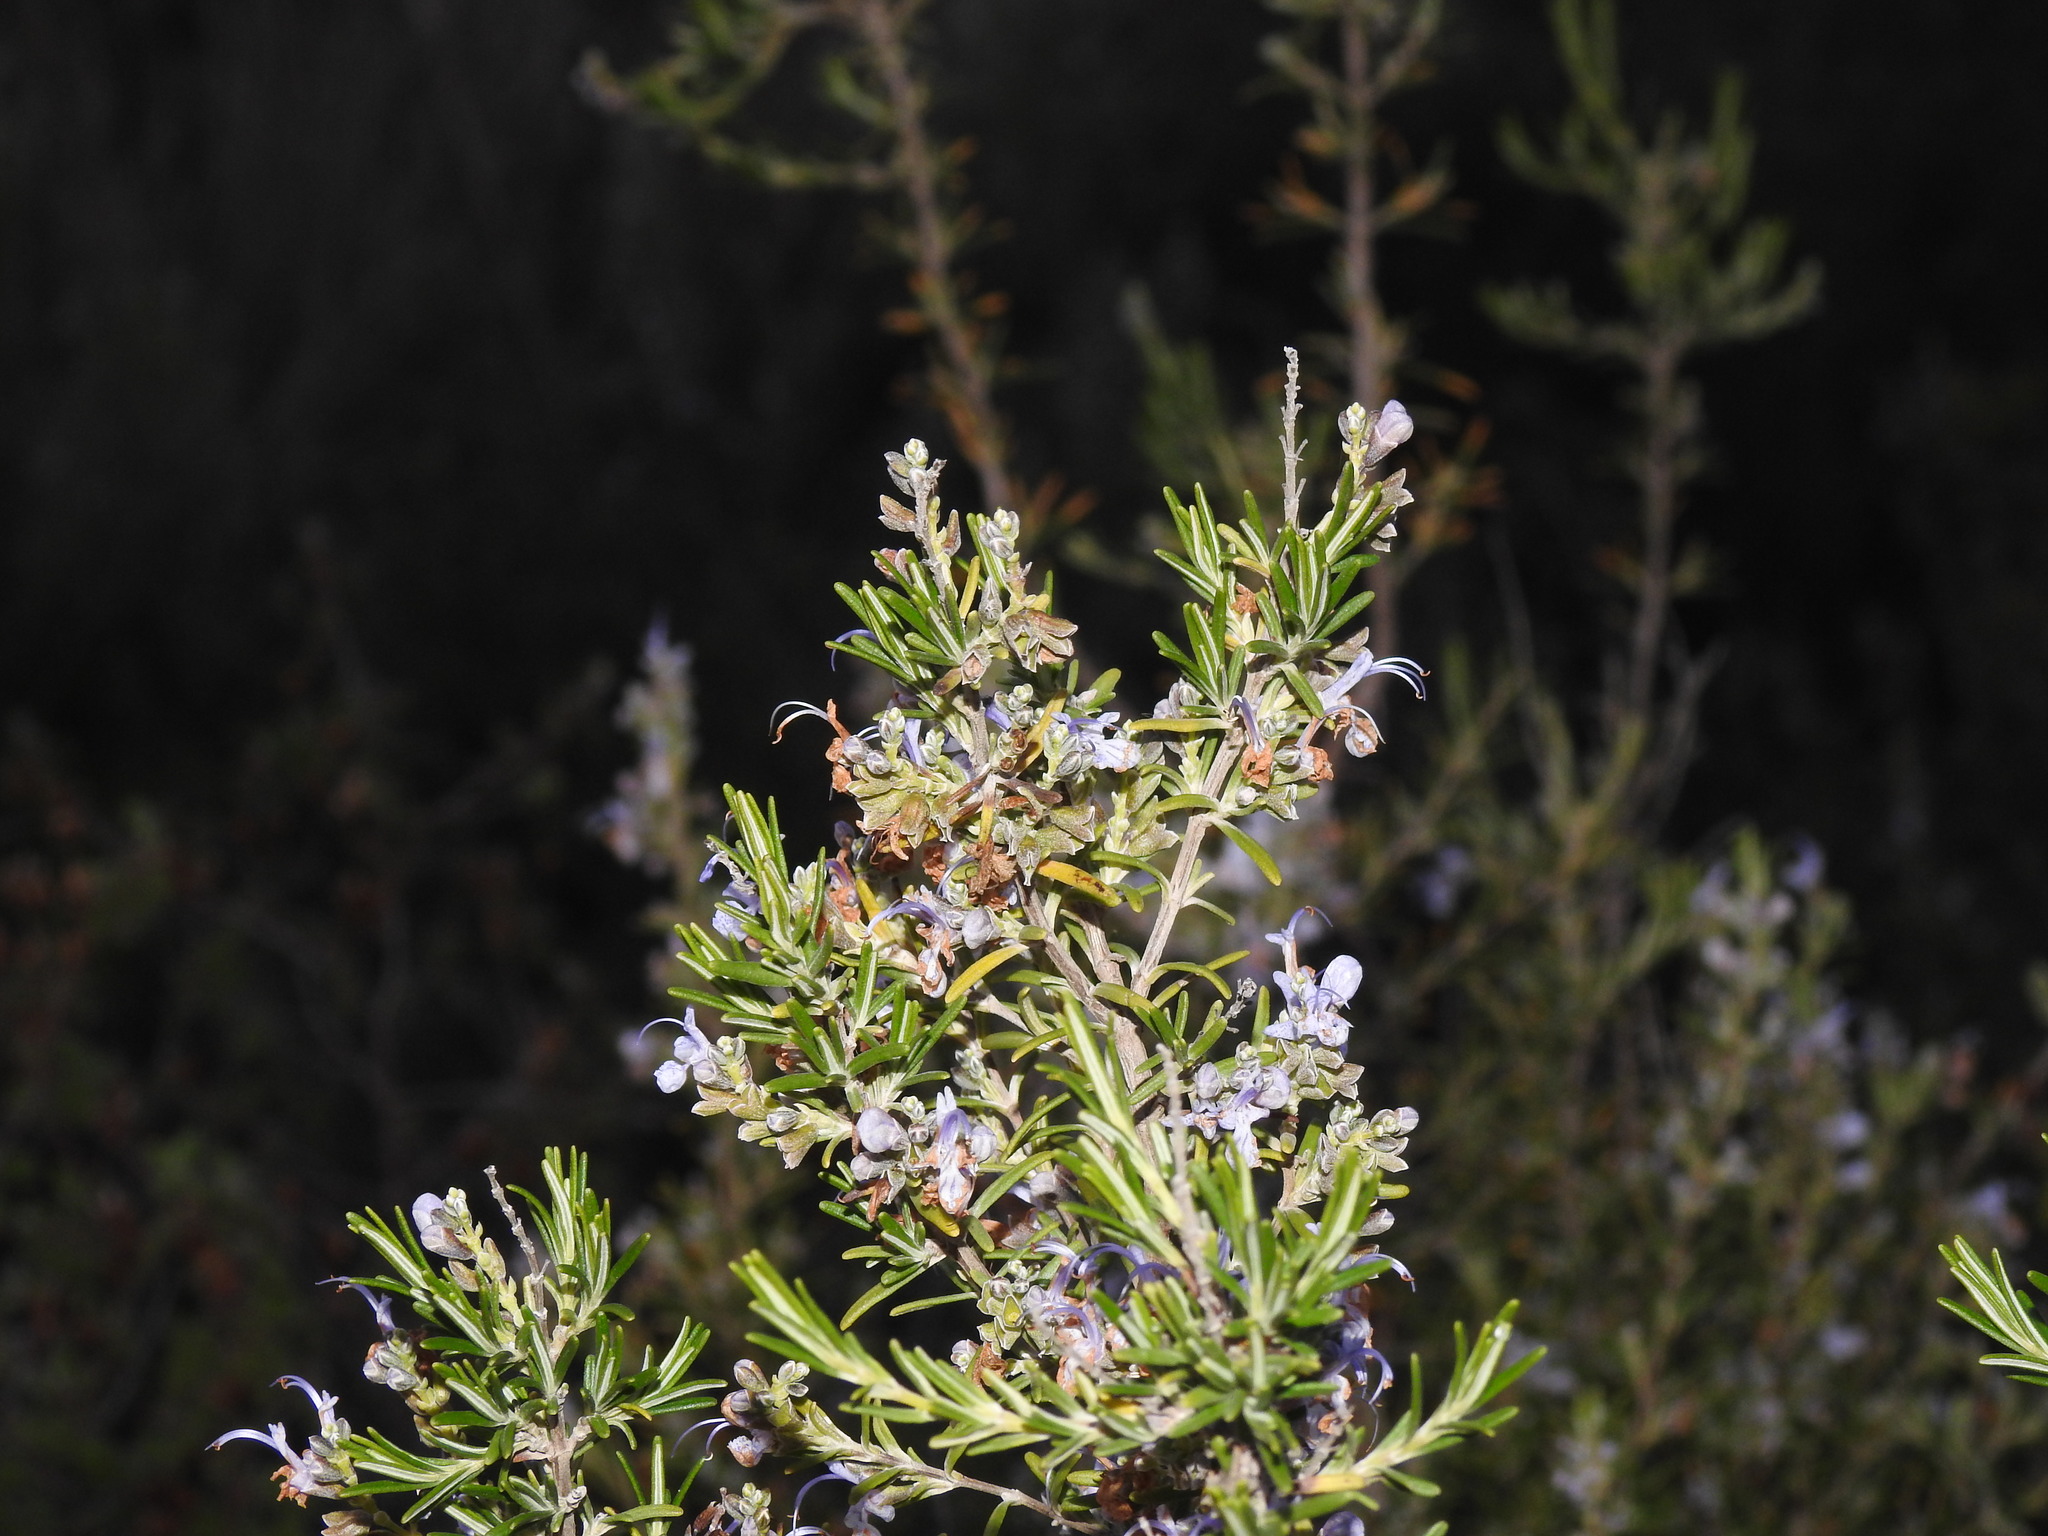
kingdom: Plantae
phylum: Tracheophyta
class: Magnoliopsida
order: Lamiales
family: Lamiaceae
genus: Salvia
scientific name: Salvia rosmarinus
